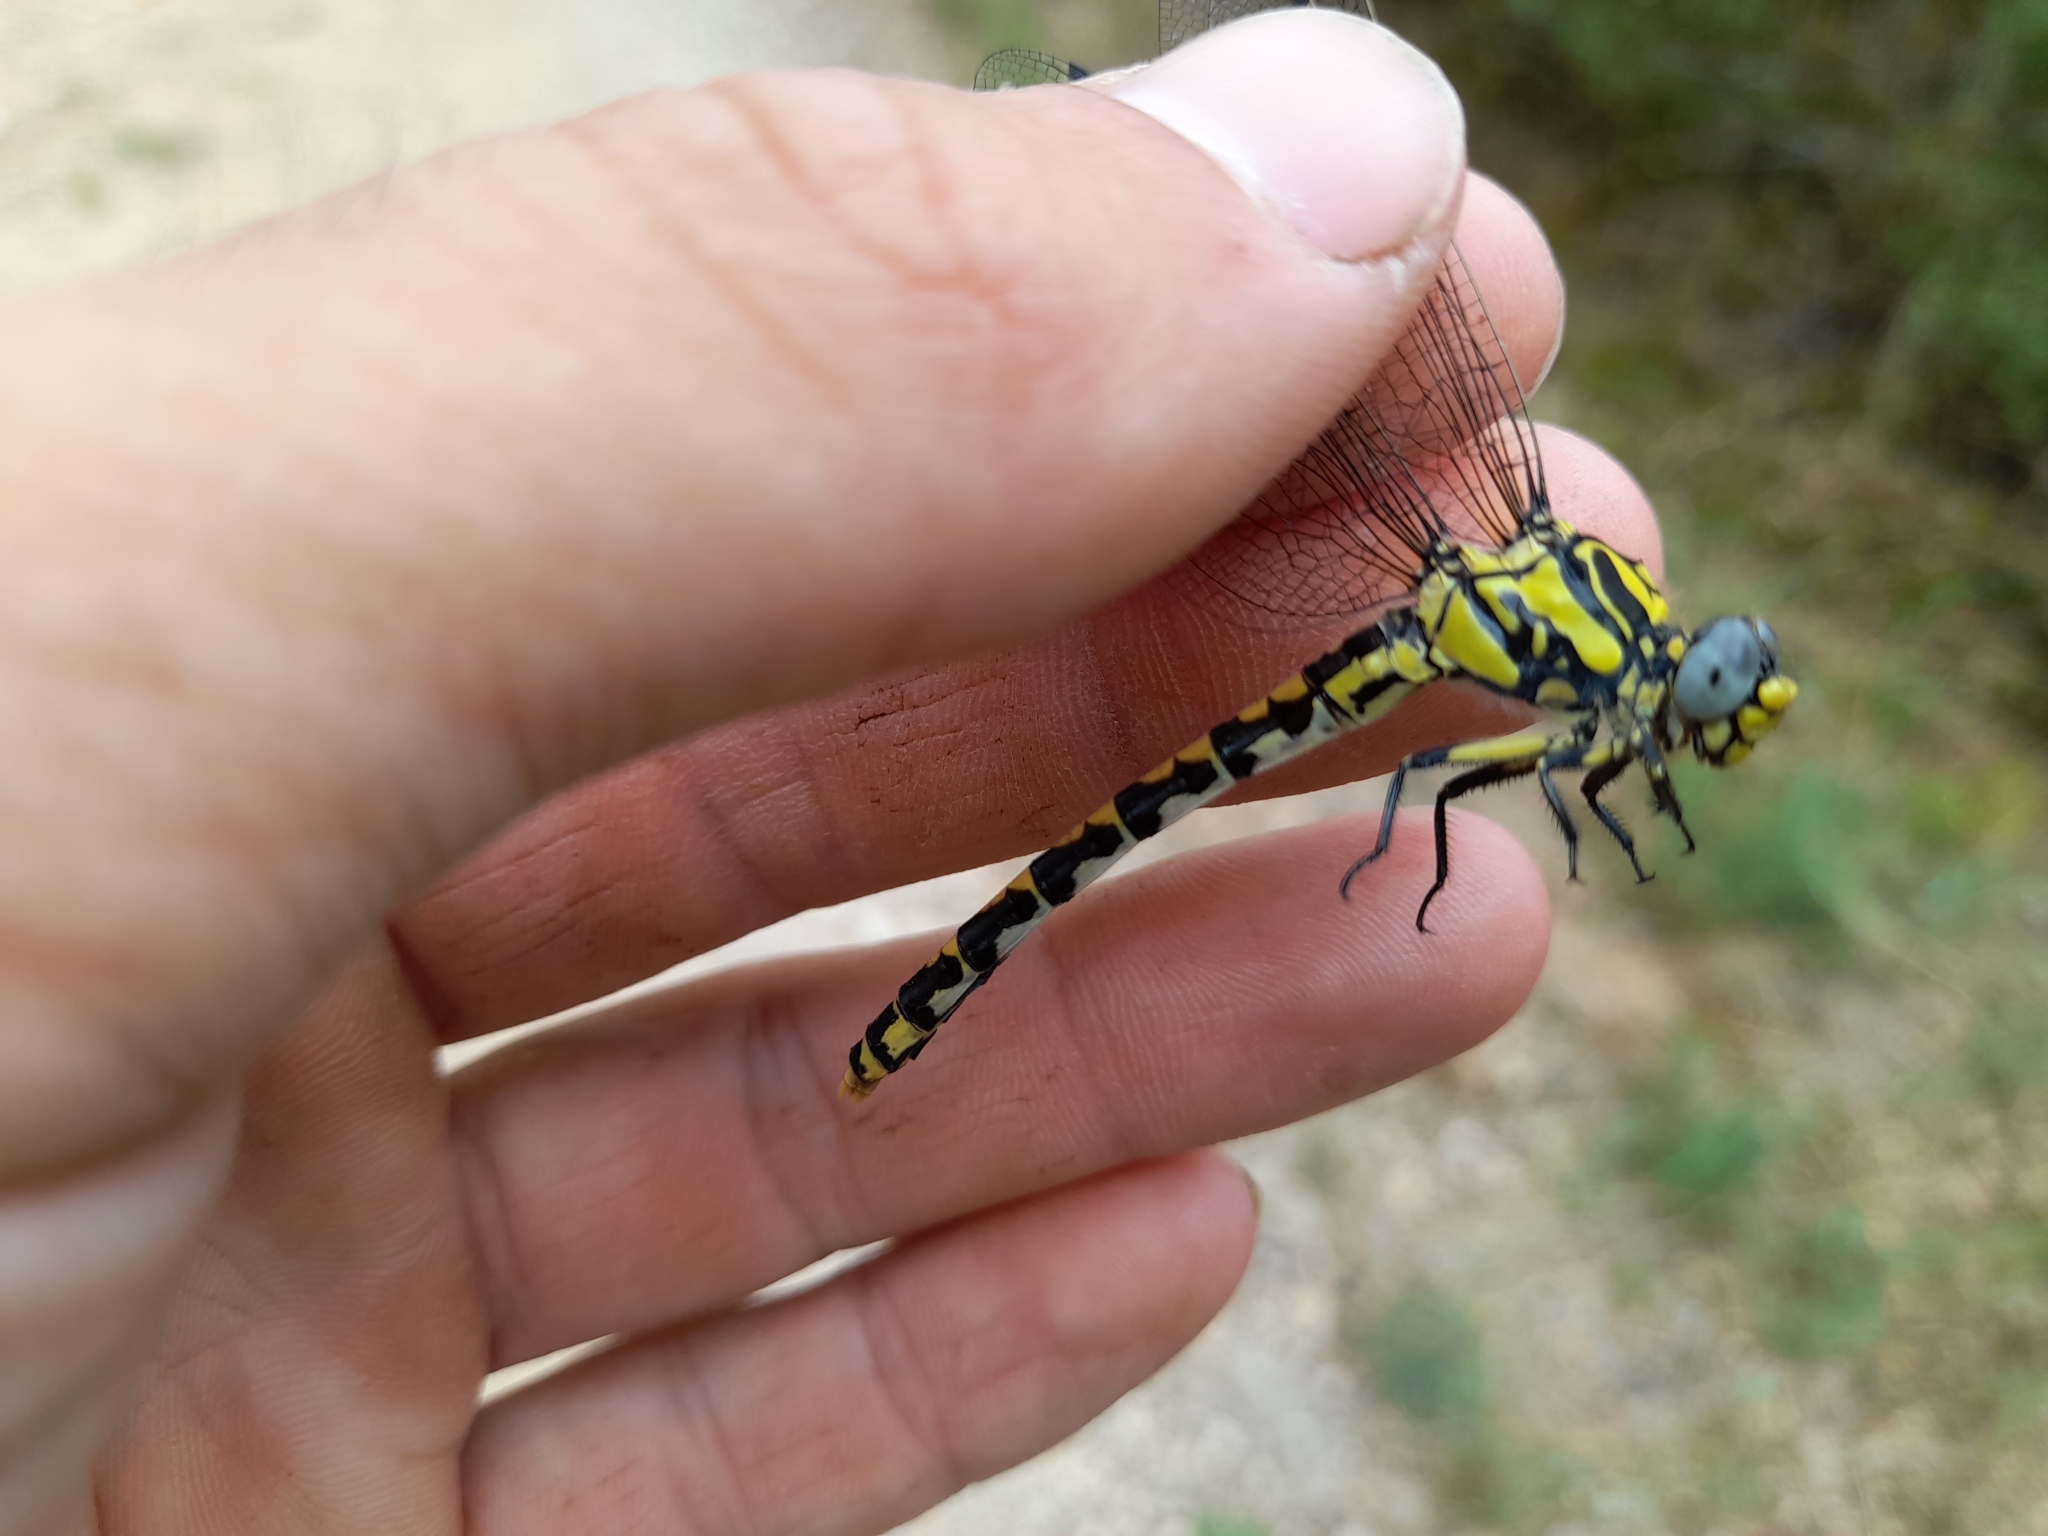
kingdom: Animalia
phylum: Arthropoda
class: Insecta
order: Odonata
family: Gomphidae
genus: Onychogomphus
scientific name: Onychogomphus uncatus
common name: Large pincertail
